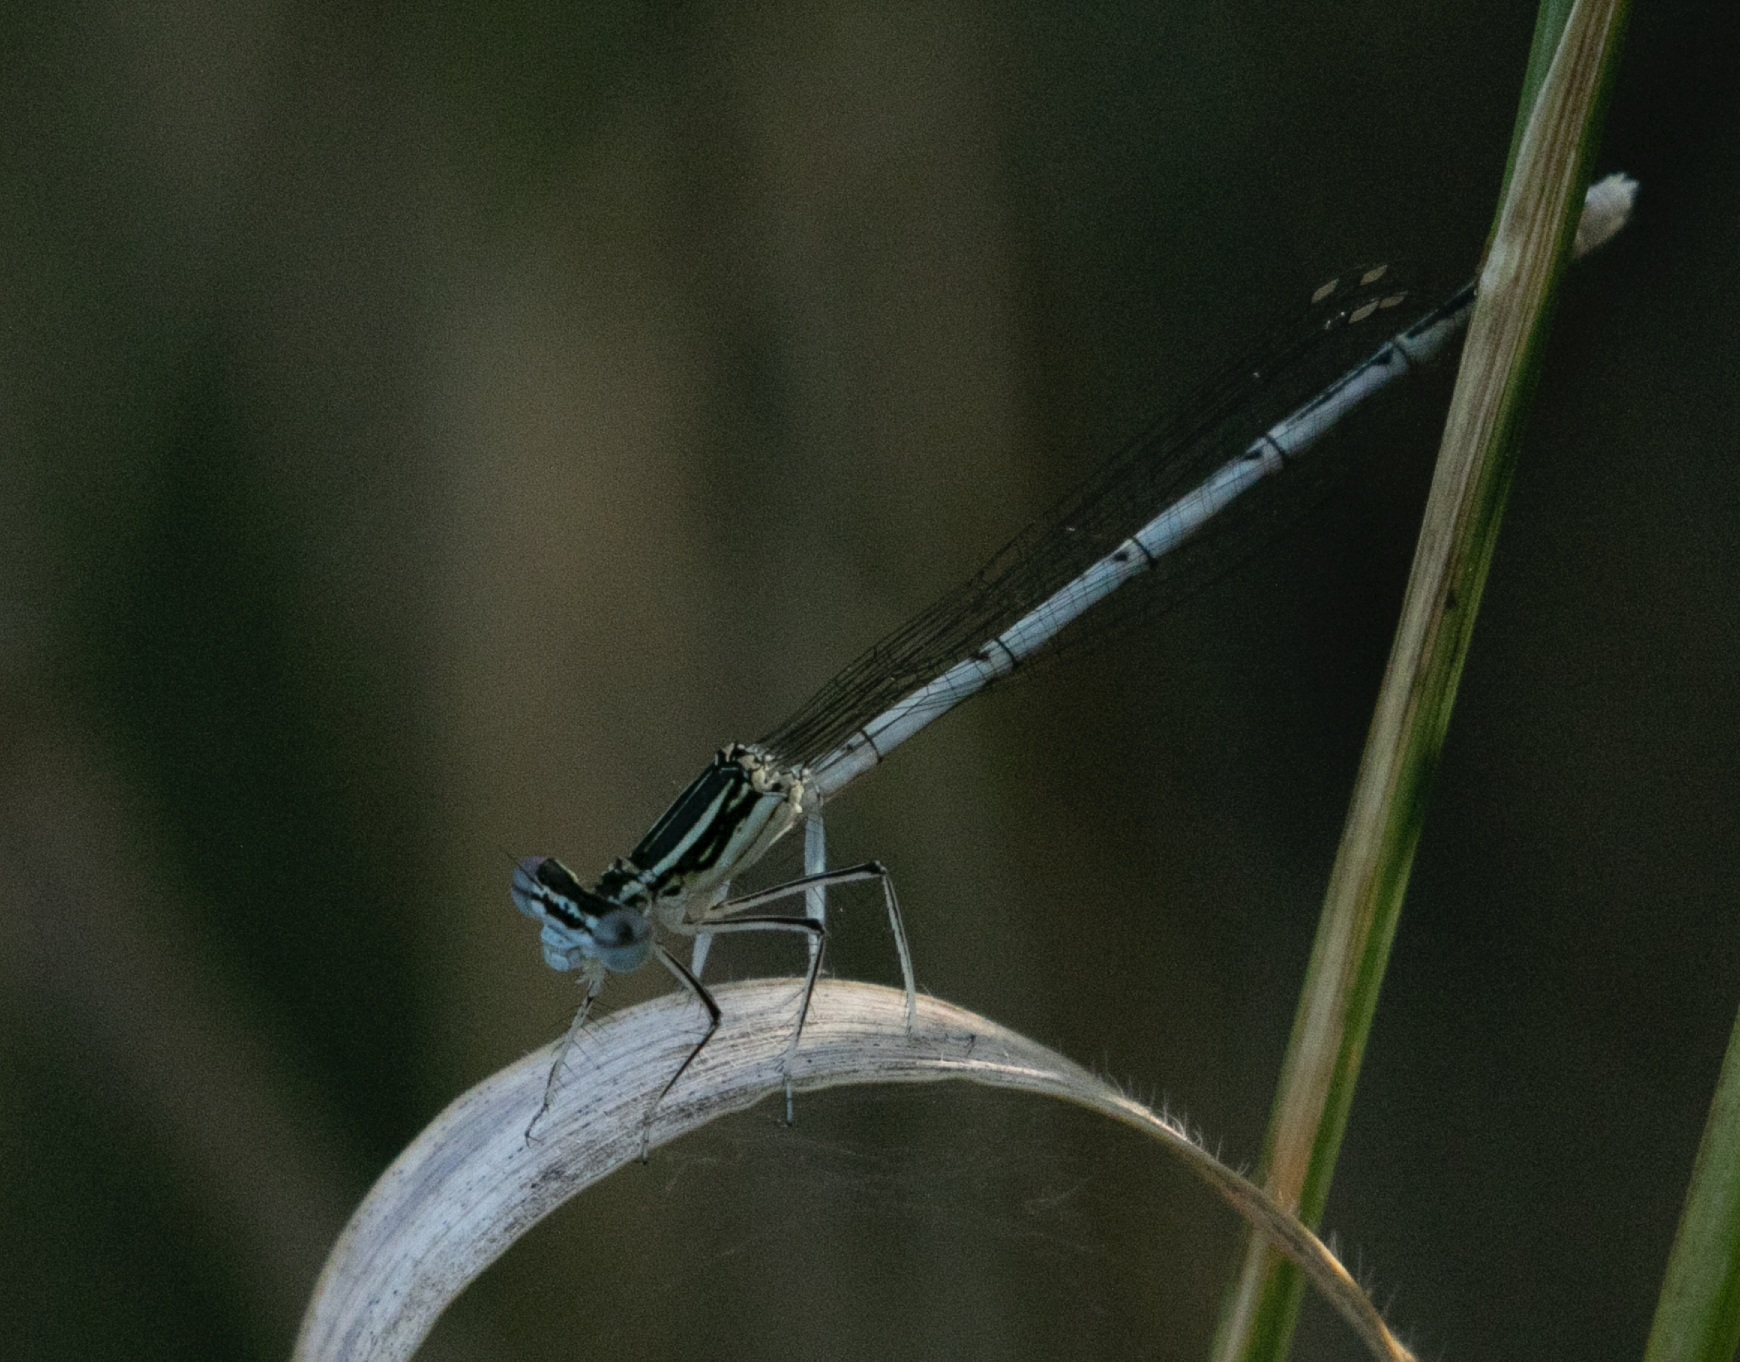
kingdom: Animalia
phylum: Arthropoda
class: Insecta
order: Odonata
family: Platycnemididae
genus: Platycnemis
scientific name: Platycnemis pennipes
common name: White-legged damselfly
